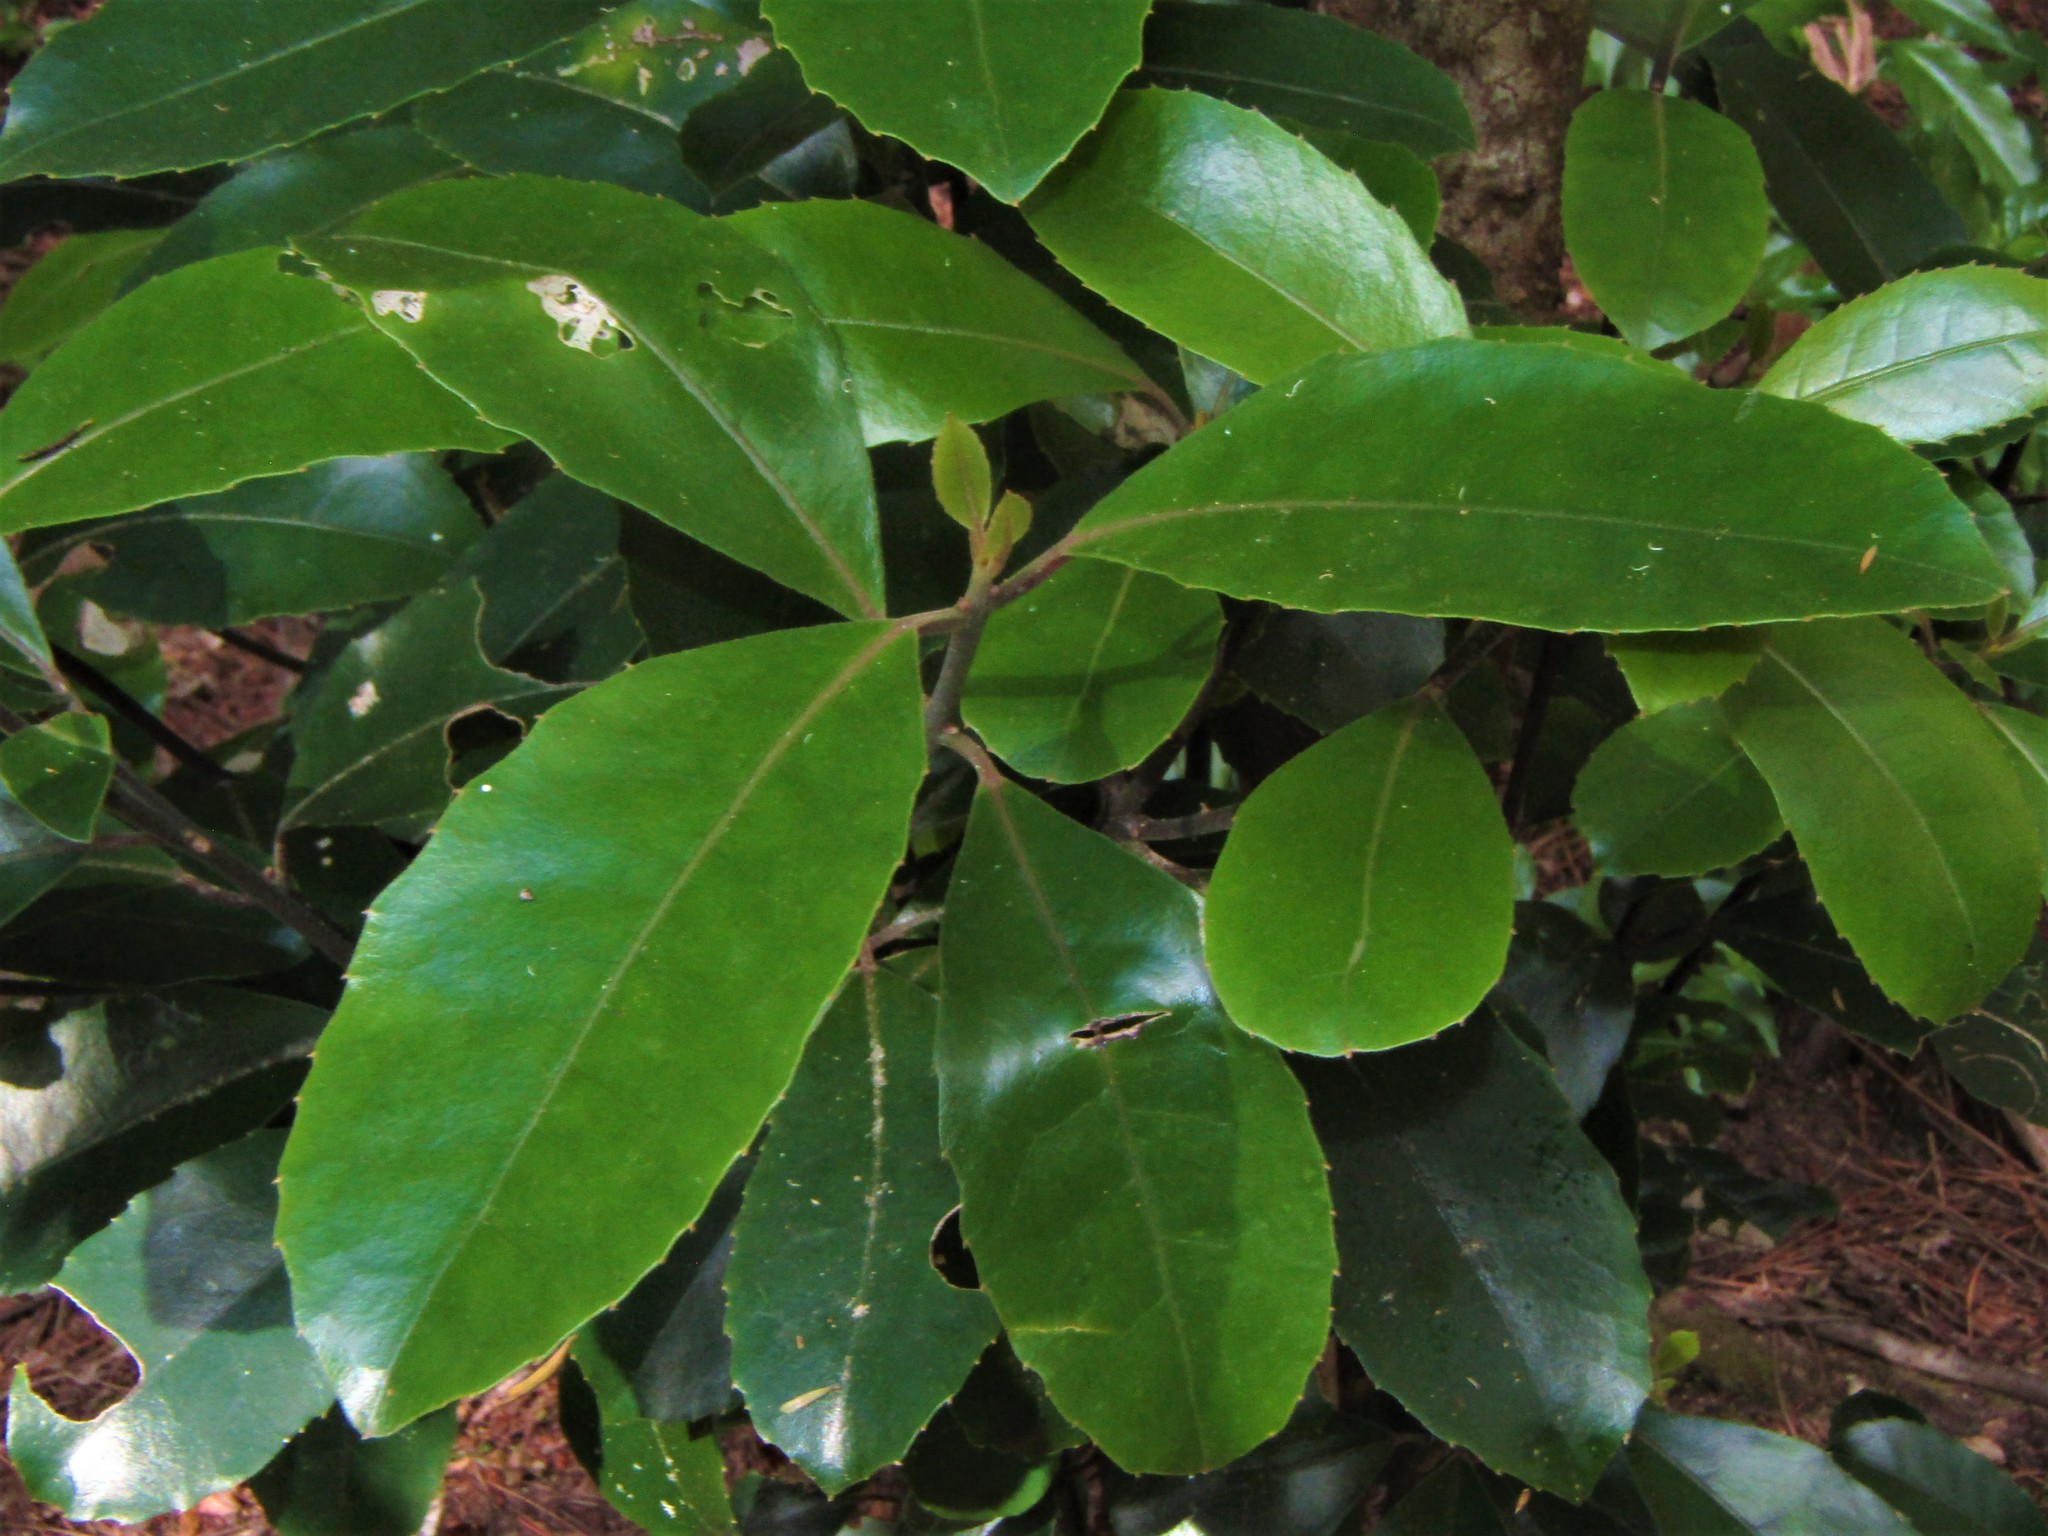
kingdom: Plantae
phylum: Tracheophyta
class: Magnoliopsida
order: Laurales
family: Monimiaceae
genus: Hedycarya
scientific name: Hedycarya arborea
